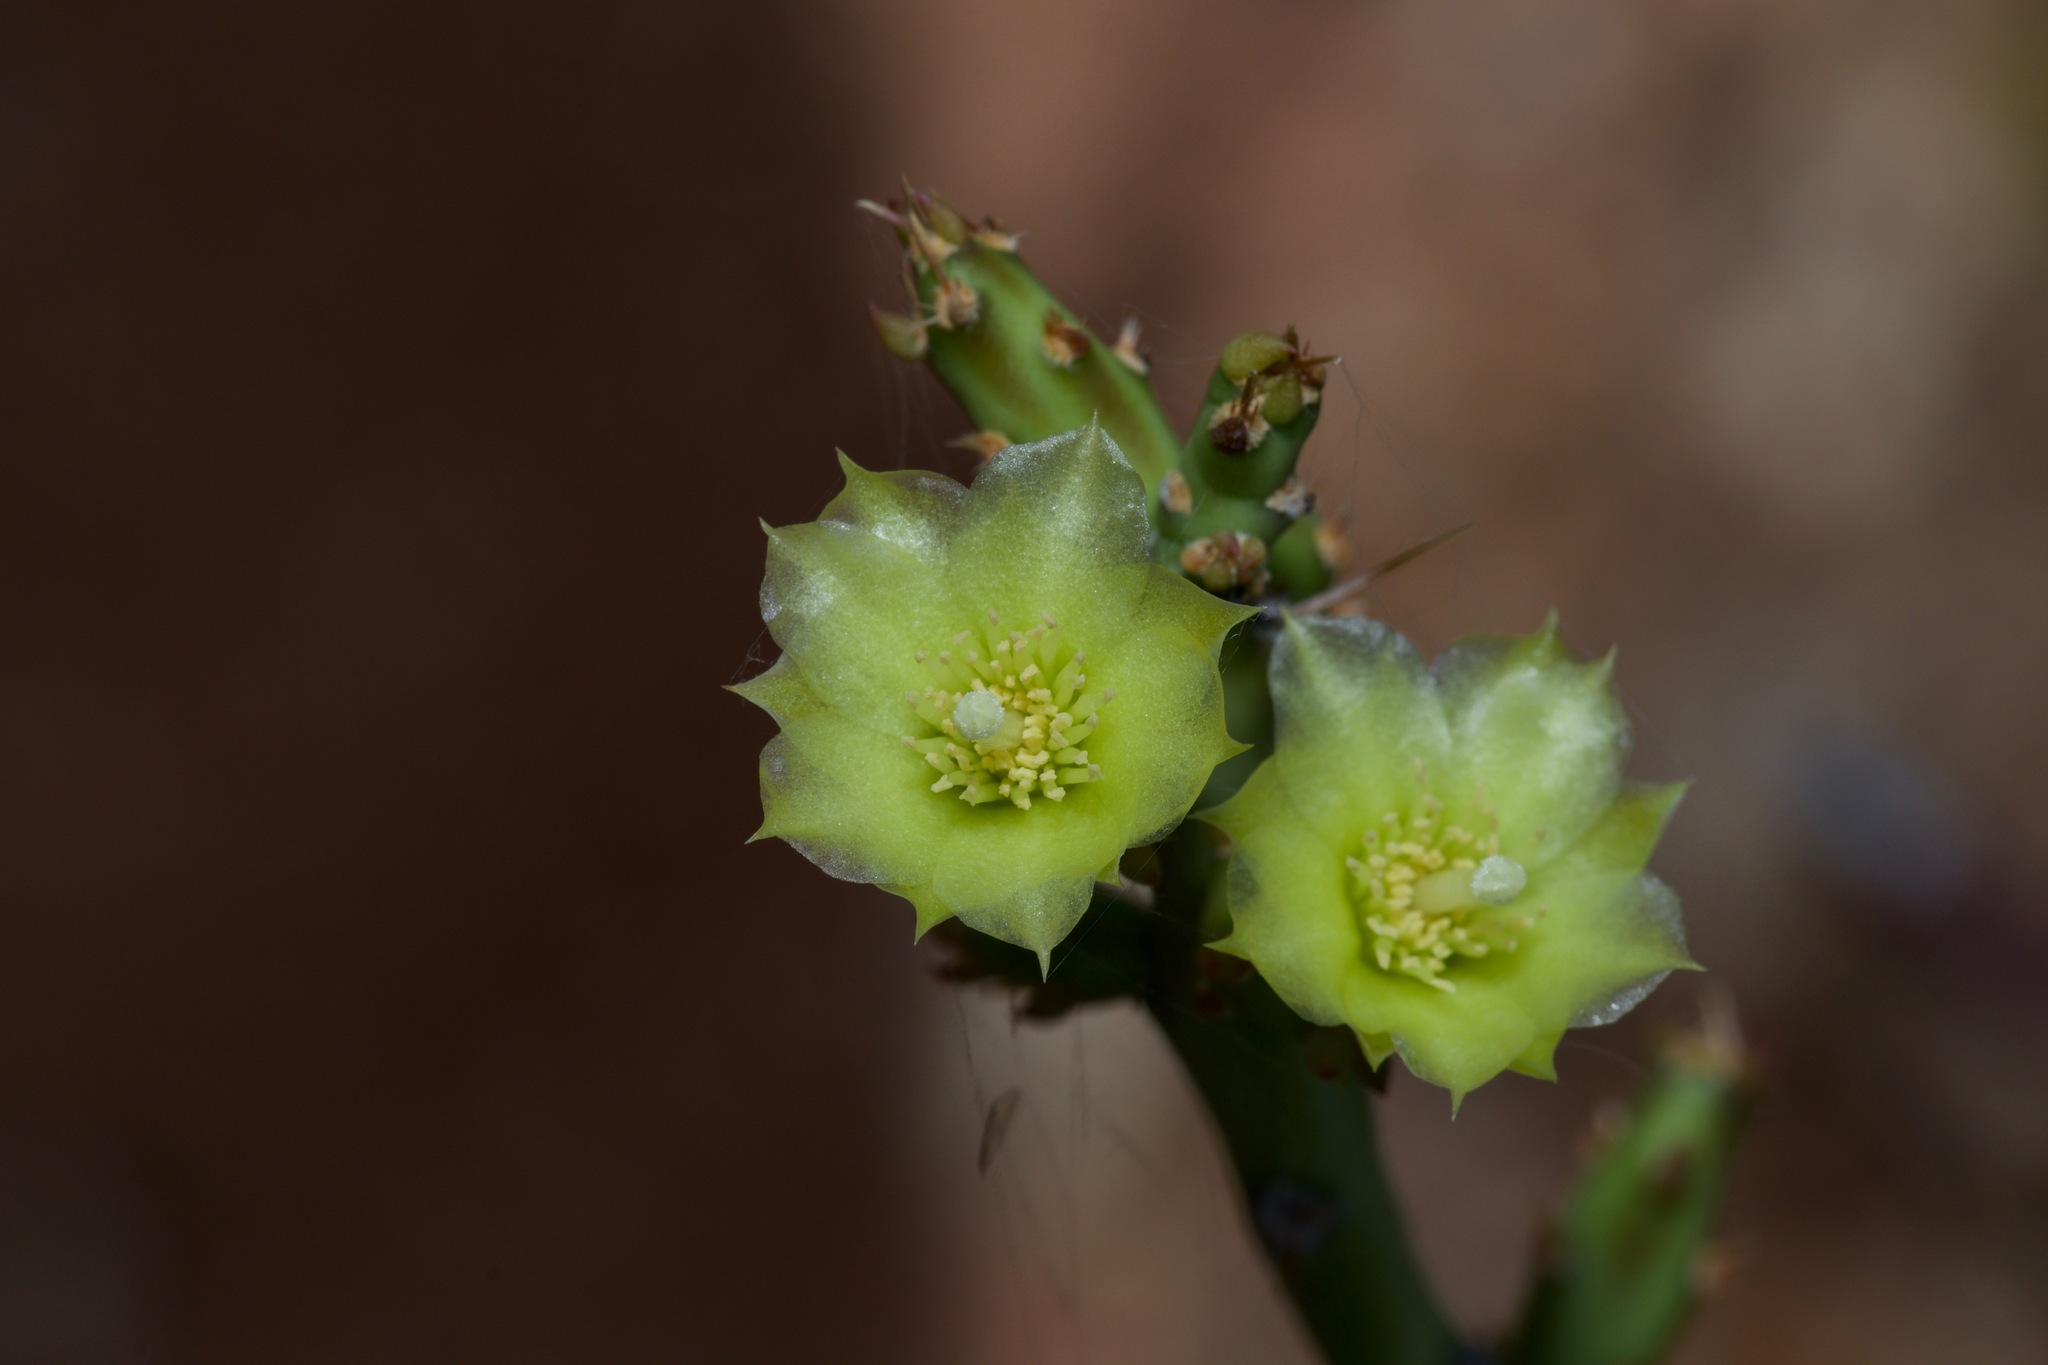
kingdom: Plantae
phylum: Tracheophyta
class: Magnoliopsida
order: Caryophyllales
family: Cactaceae
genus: Cylindropuntia
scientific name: Cylindropuntia leptocaulis
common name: Christmas cactus
